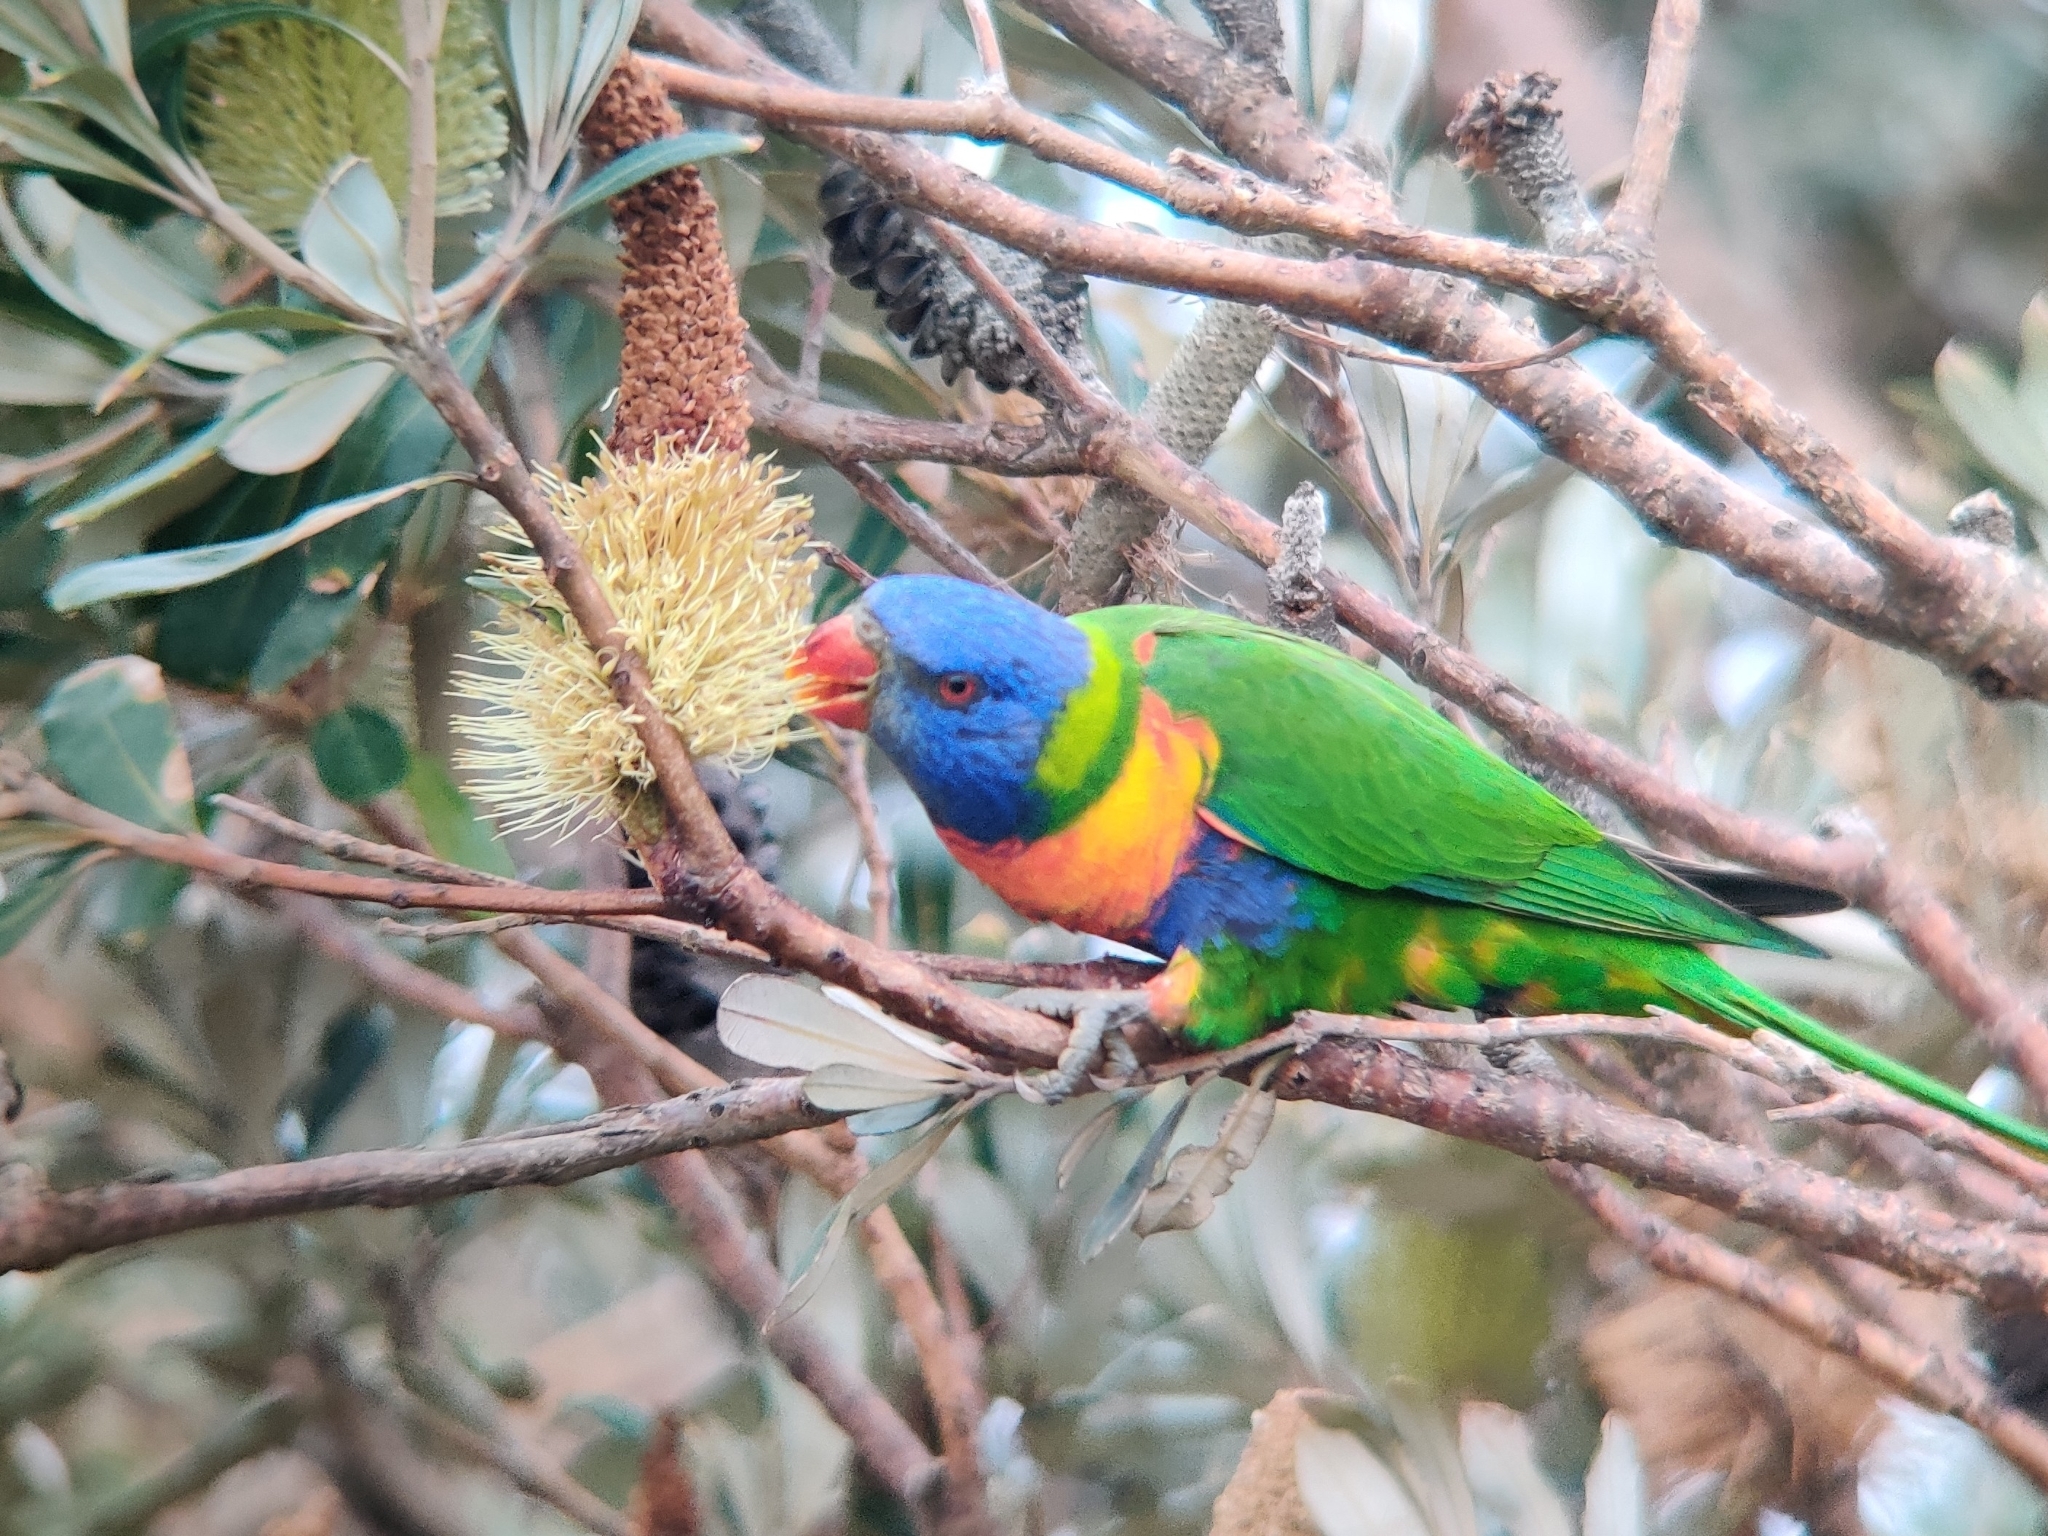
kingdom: Animalia
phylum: Chordata
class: Aves
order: Psittaciformes
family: Psittacidae
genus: Trichoglossus
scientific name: Trichoglossus haematodus
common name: Coconut lorikeet
